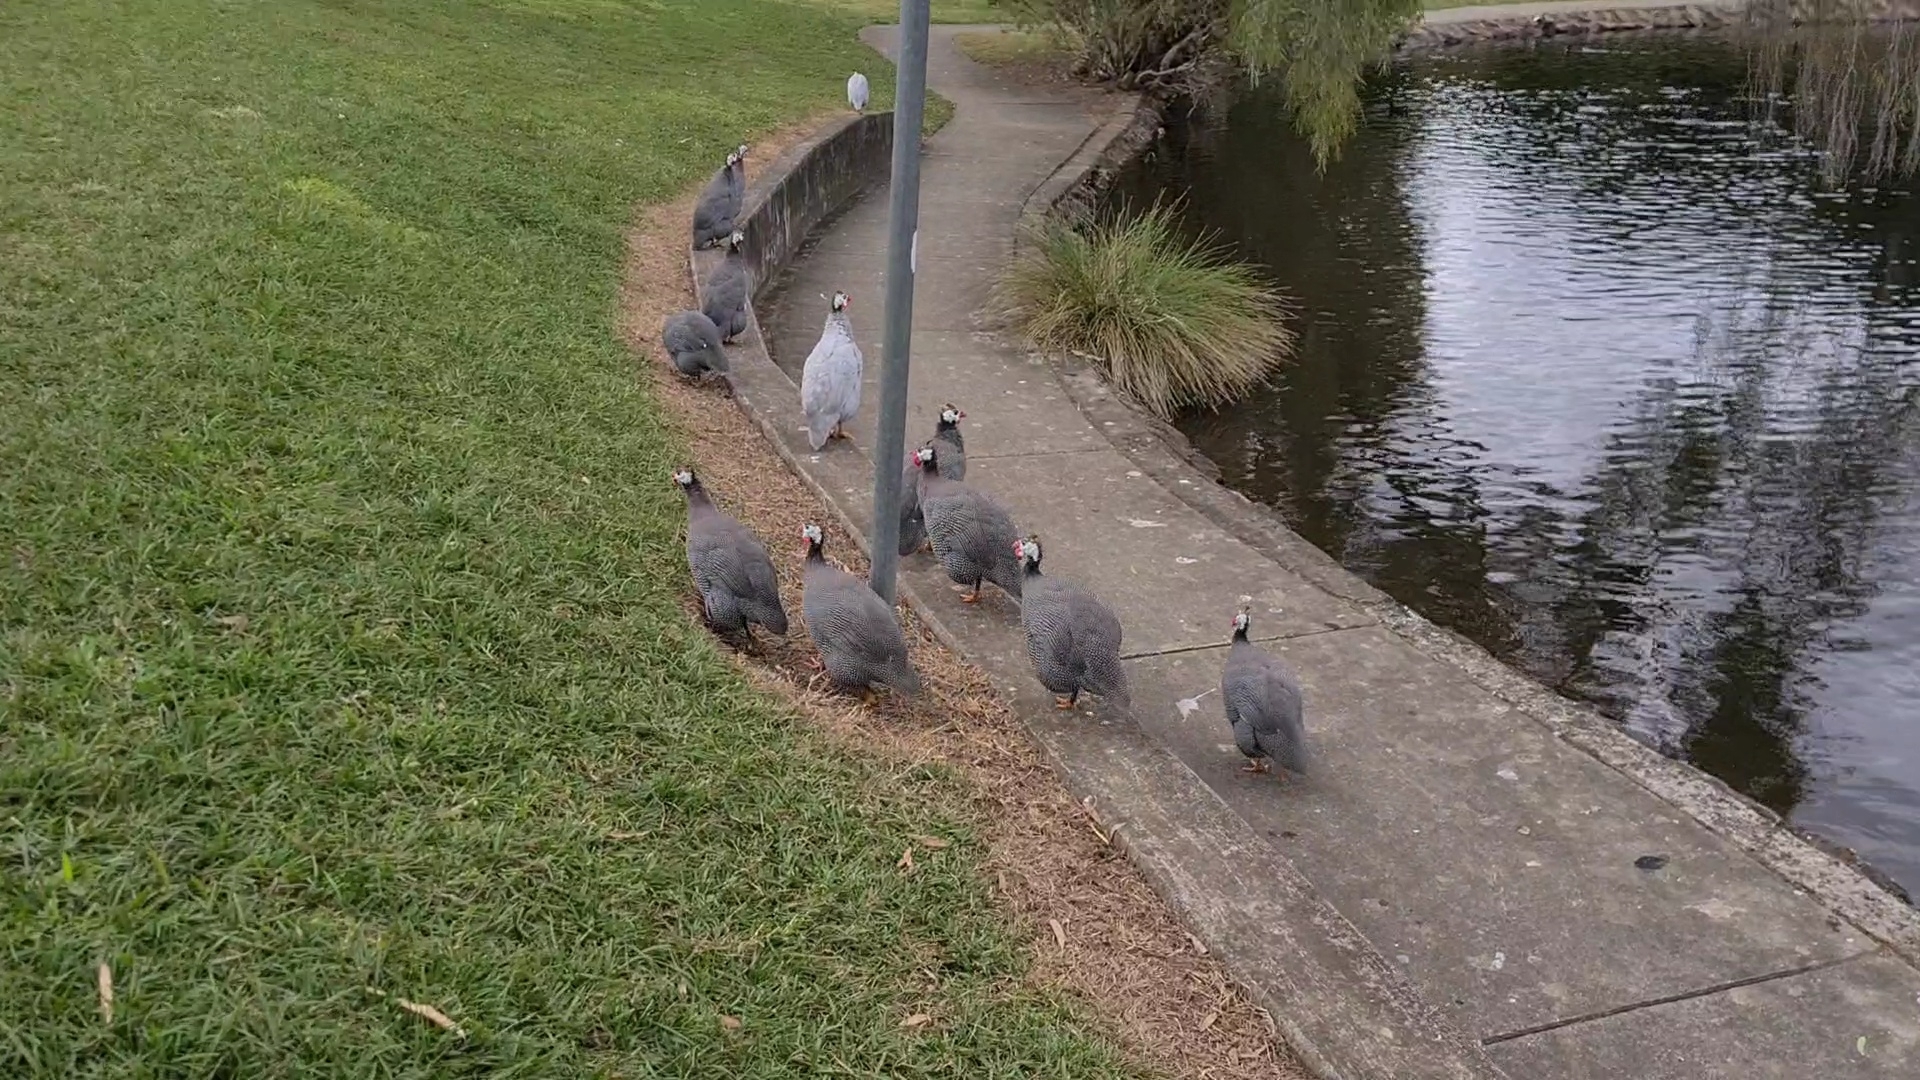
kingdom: Animalia
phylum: Chordata
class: Aves
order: Galliformes
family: Numididae
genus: Numida
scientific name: Numida meleagris
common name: Helmeted guineafowl
